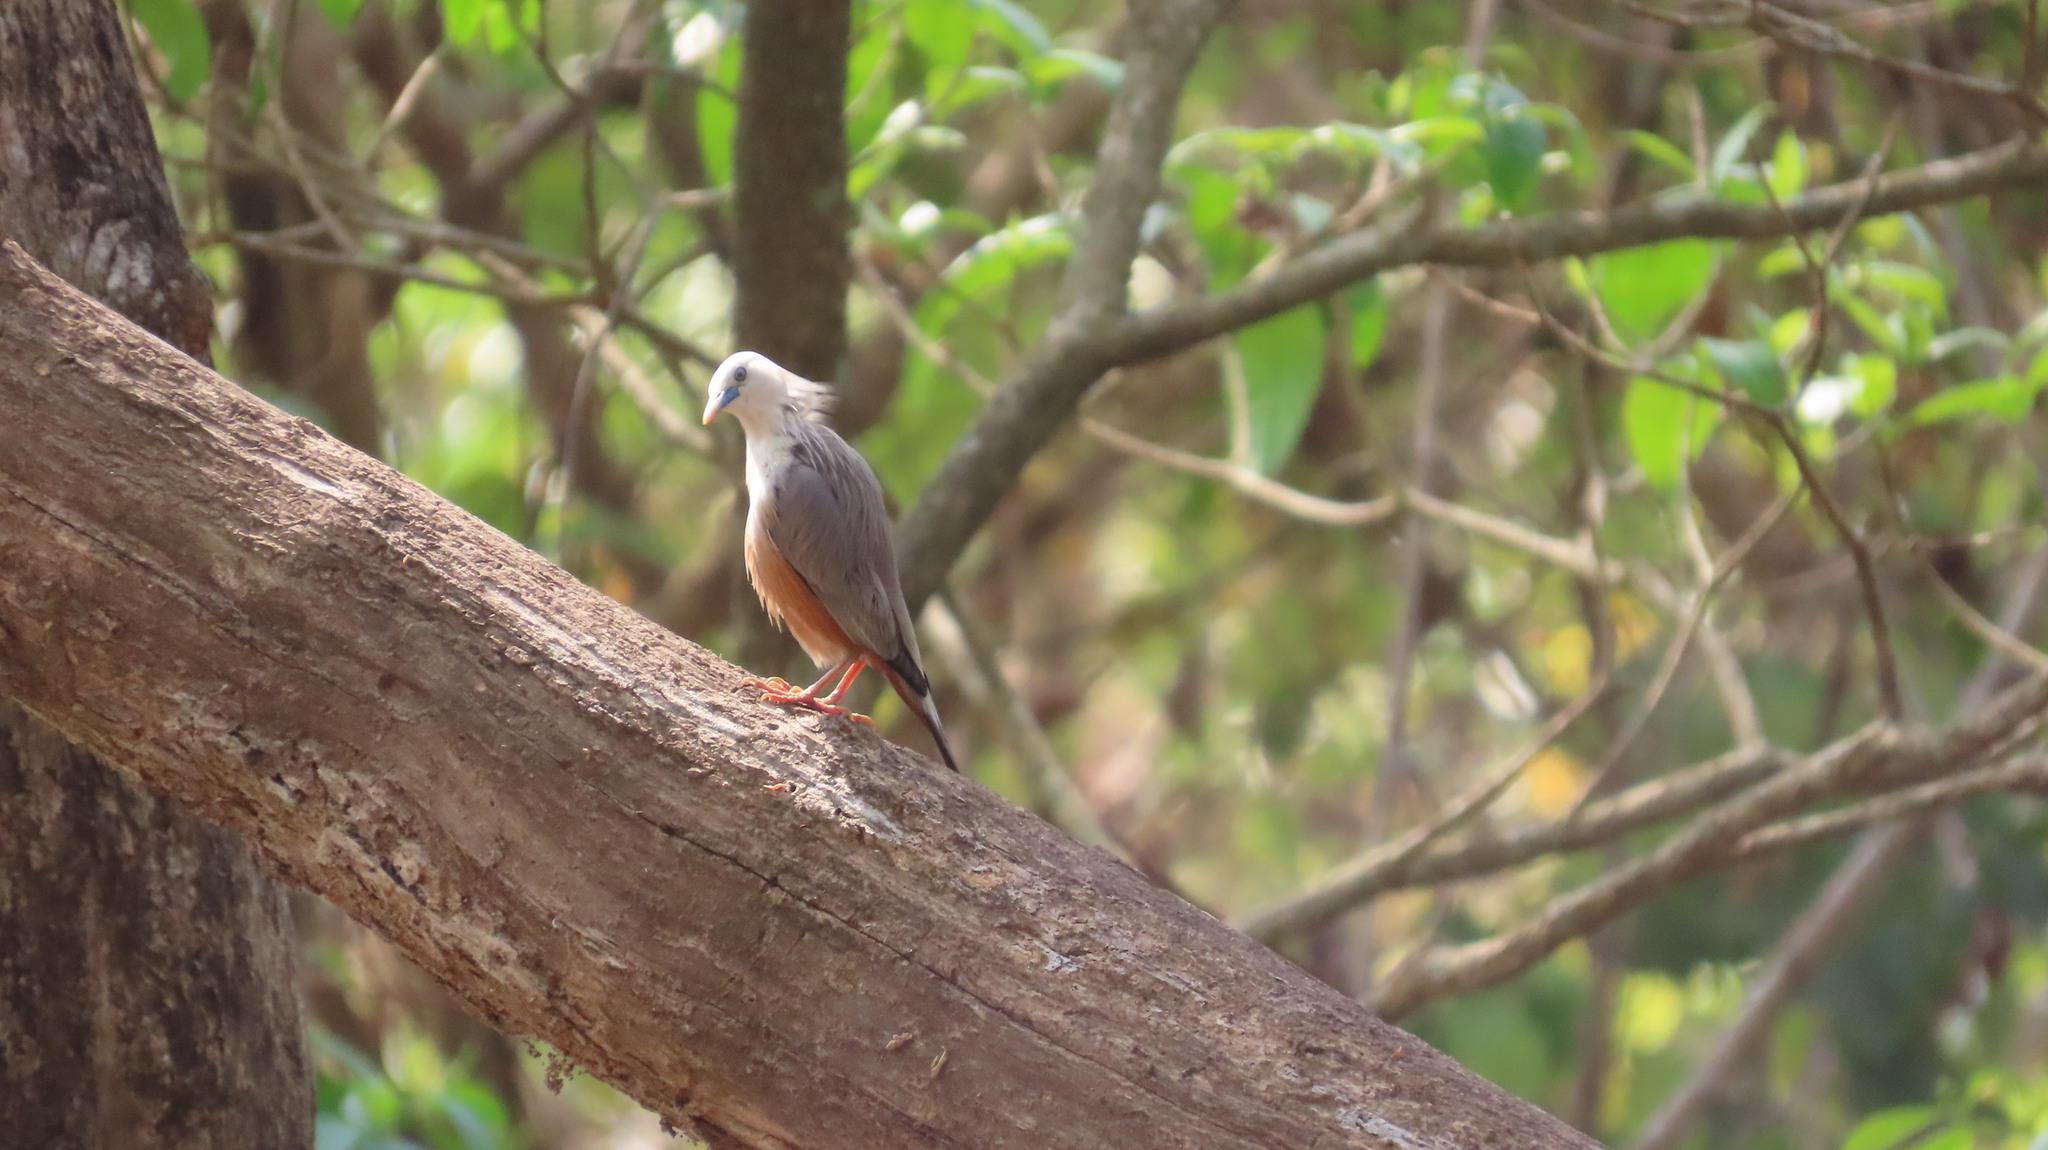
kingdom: Animalia
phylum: Chordata
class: Aves
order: Passeriformes
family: Sturnidae
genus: Sturnia
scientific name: Sturnia blythii
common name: Malabar starling
